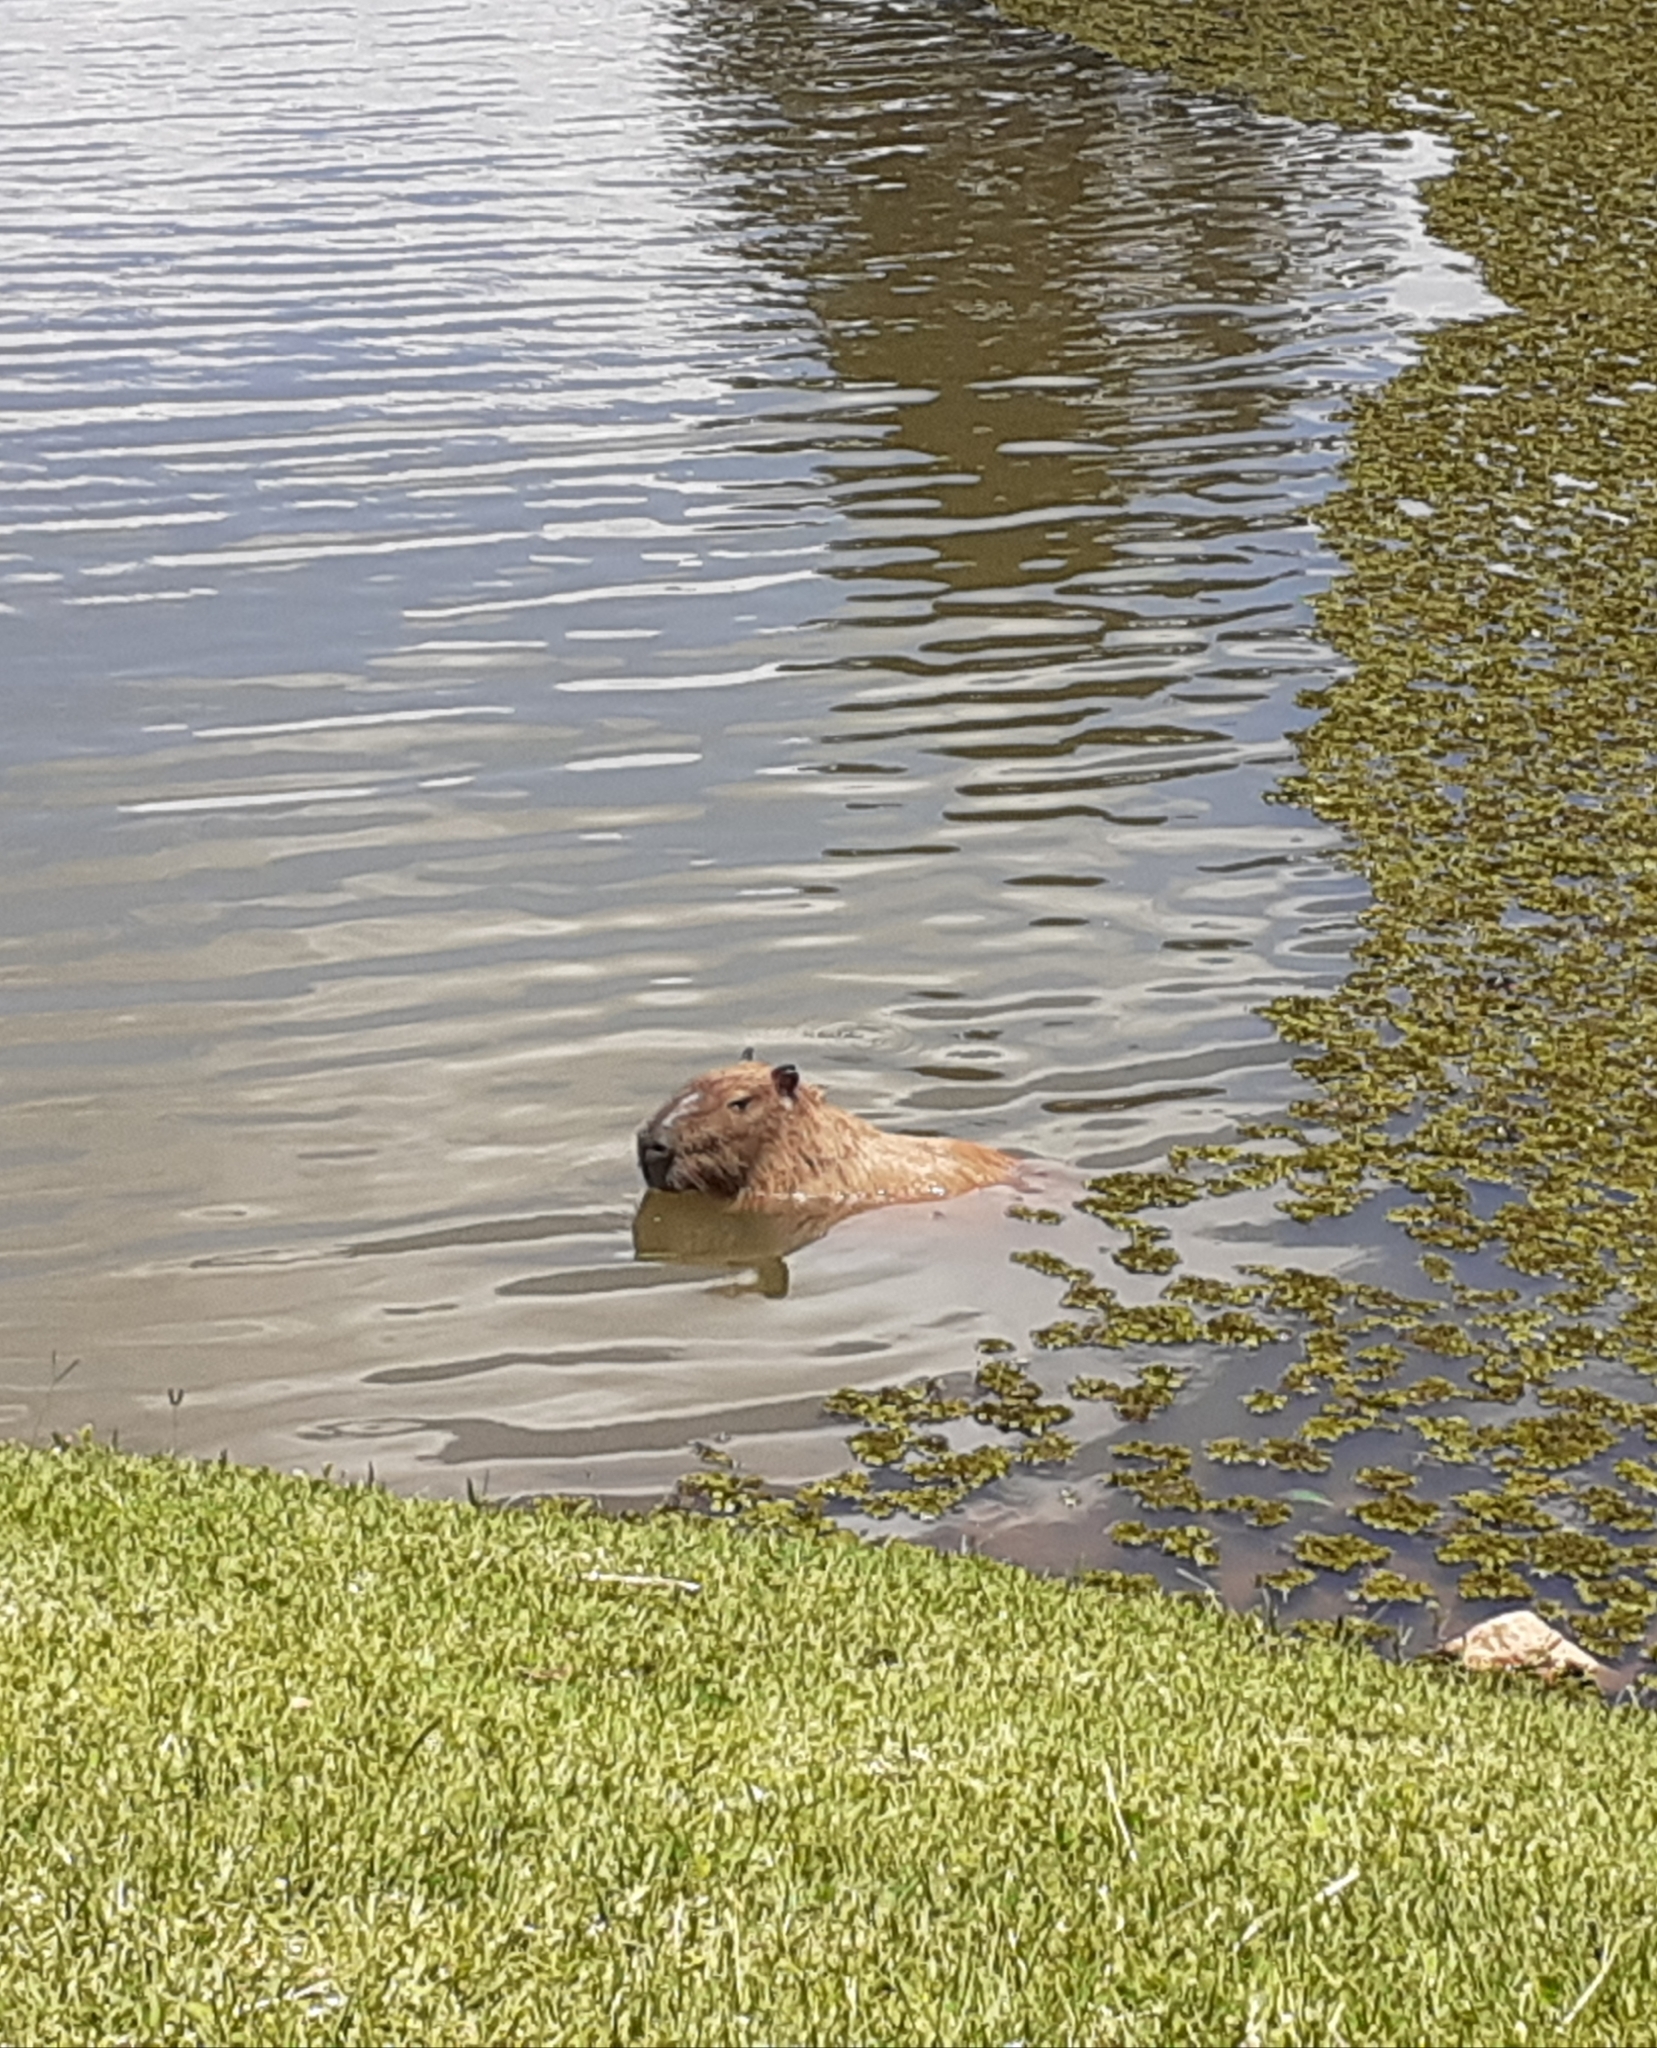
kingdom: Animalia
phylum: Chordata
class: Mammalia
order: Rodentia
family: Caviidae
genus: Hydrochoerus
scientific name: Hydrochoerus hydrochaeris
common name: Capybara
